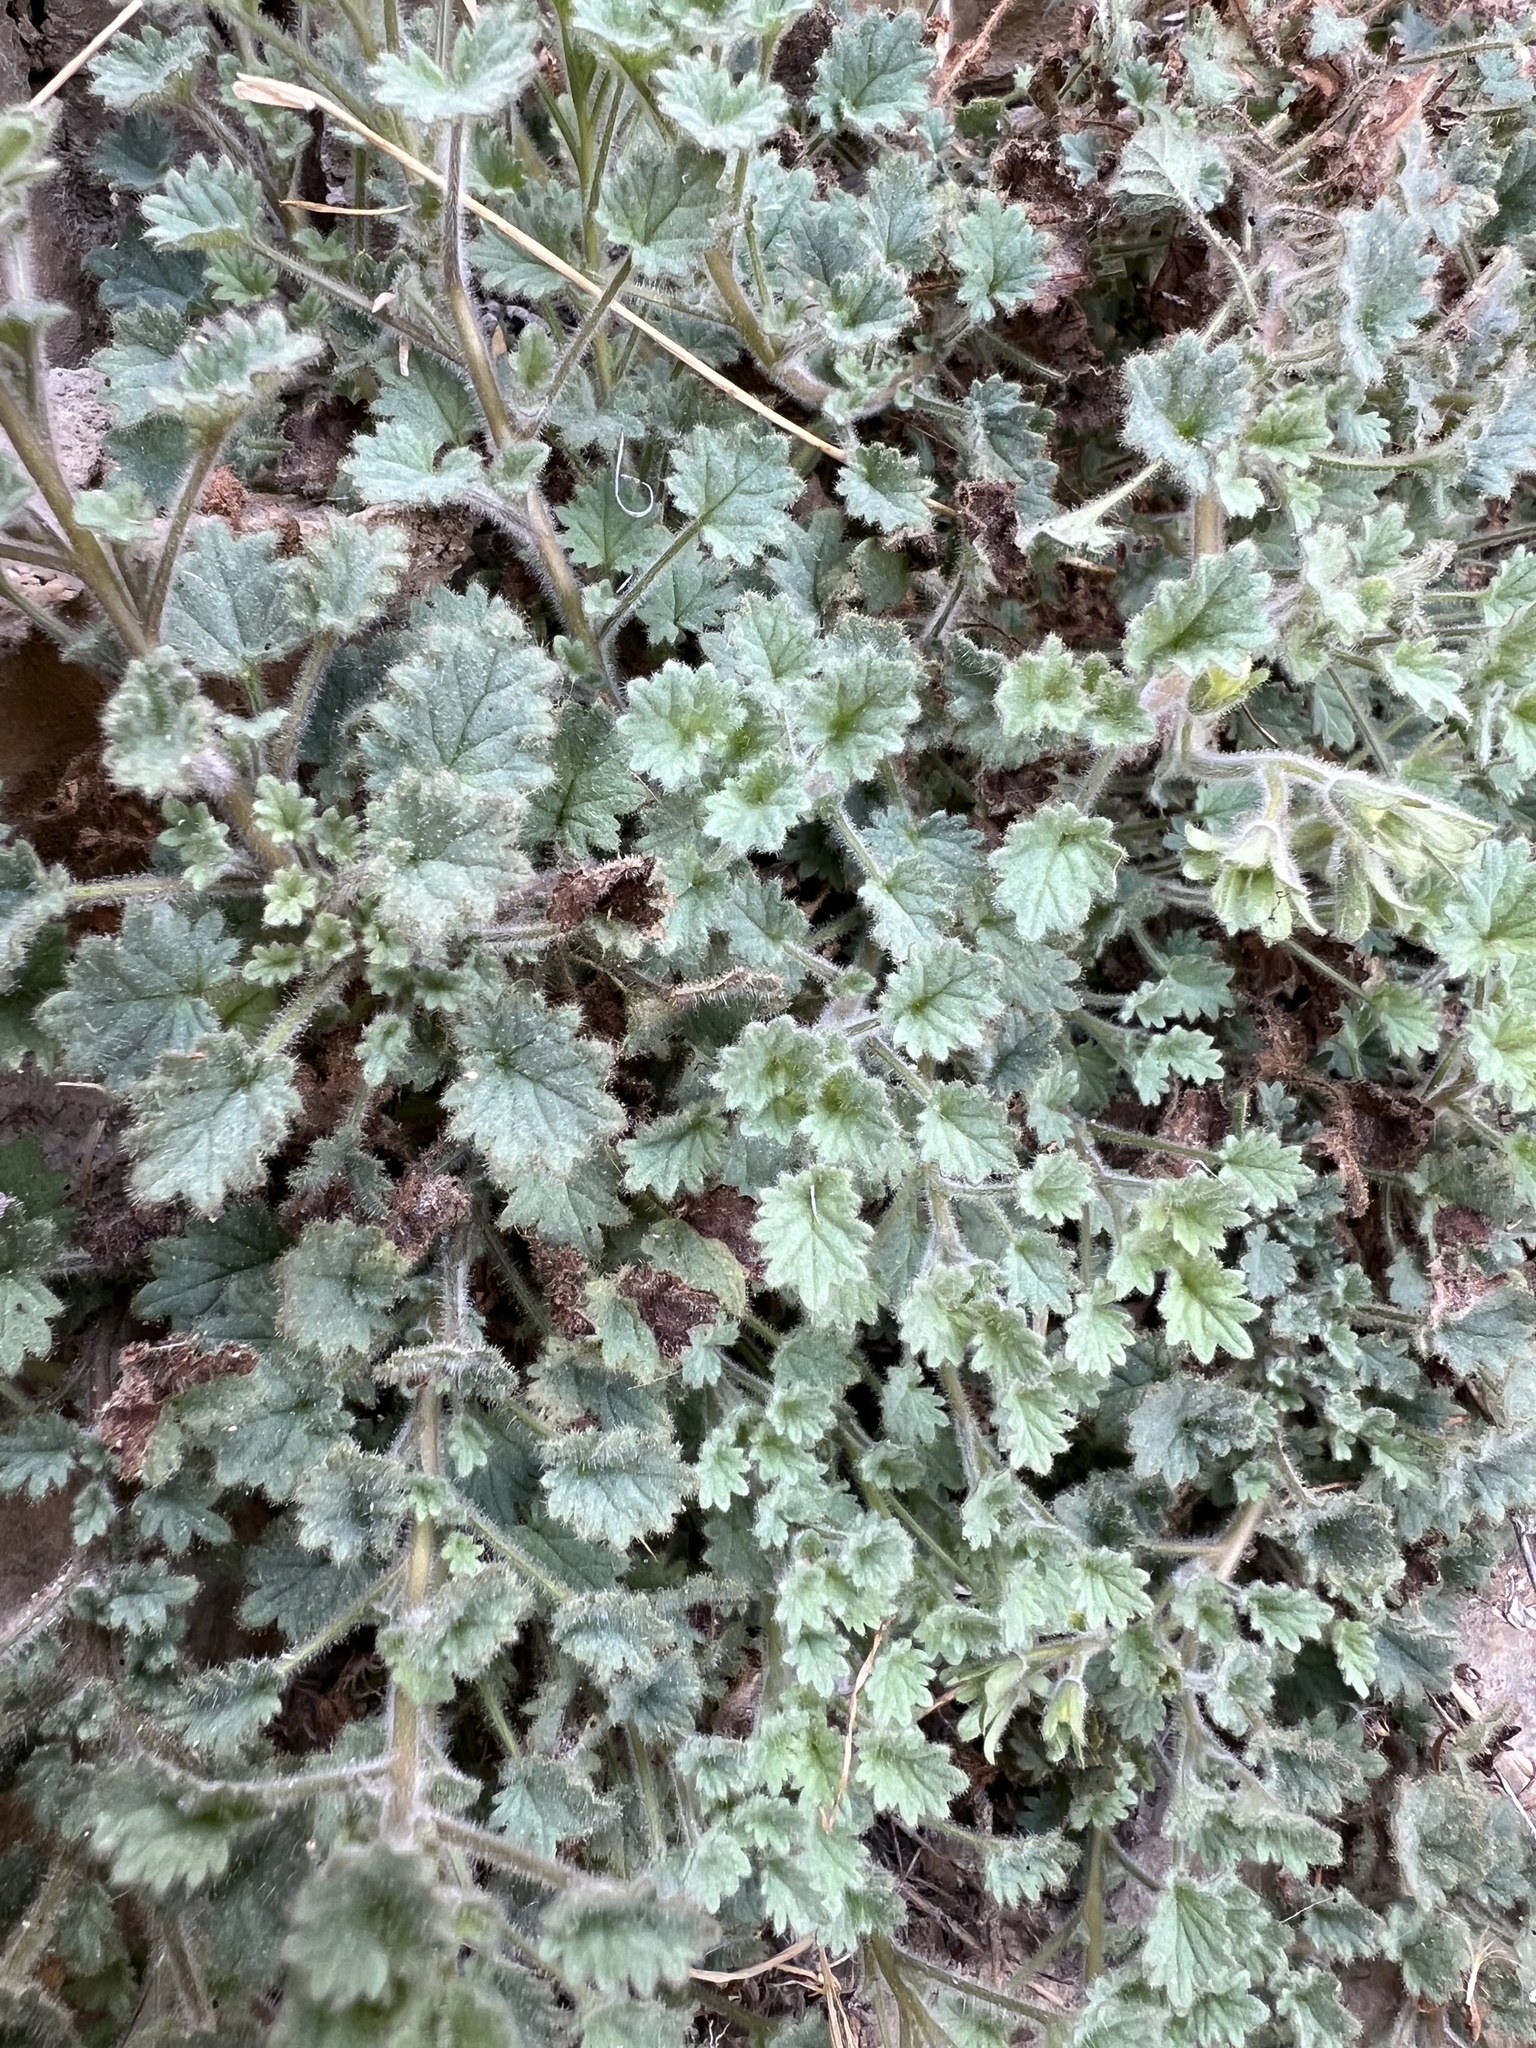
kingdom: Plantae
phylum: Tracheophyta
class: Magnoliopsida
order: Boraginales
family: Hydrophyllaceae
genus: Phacelia
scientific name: Phacelia perityloides
